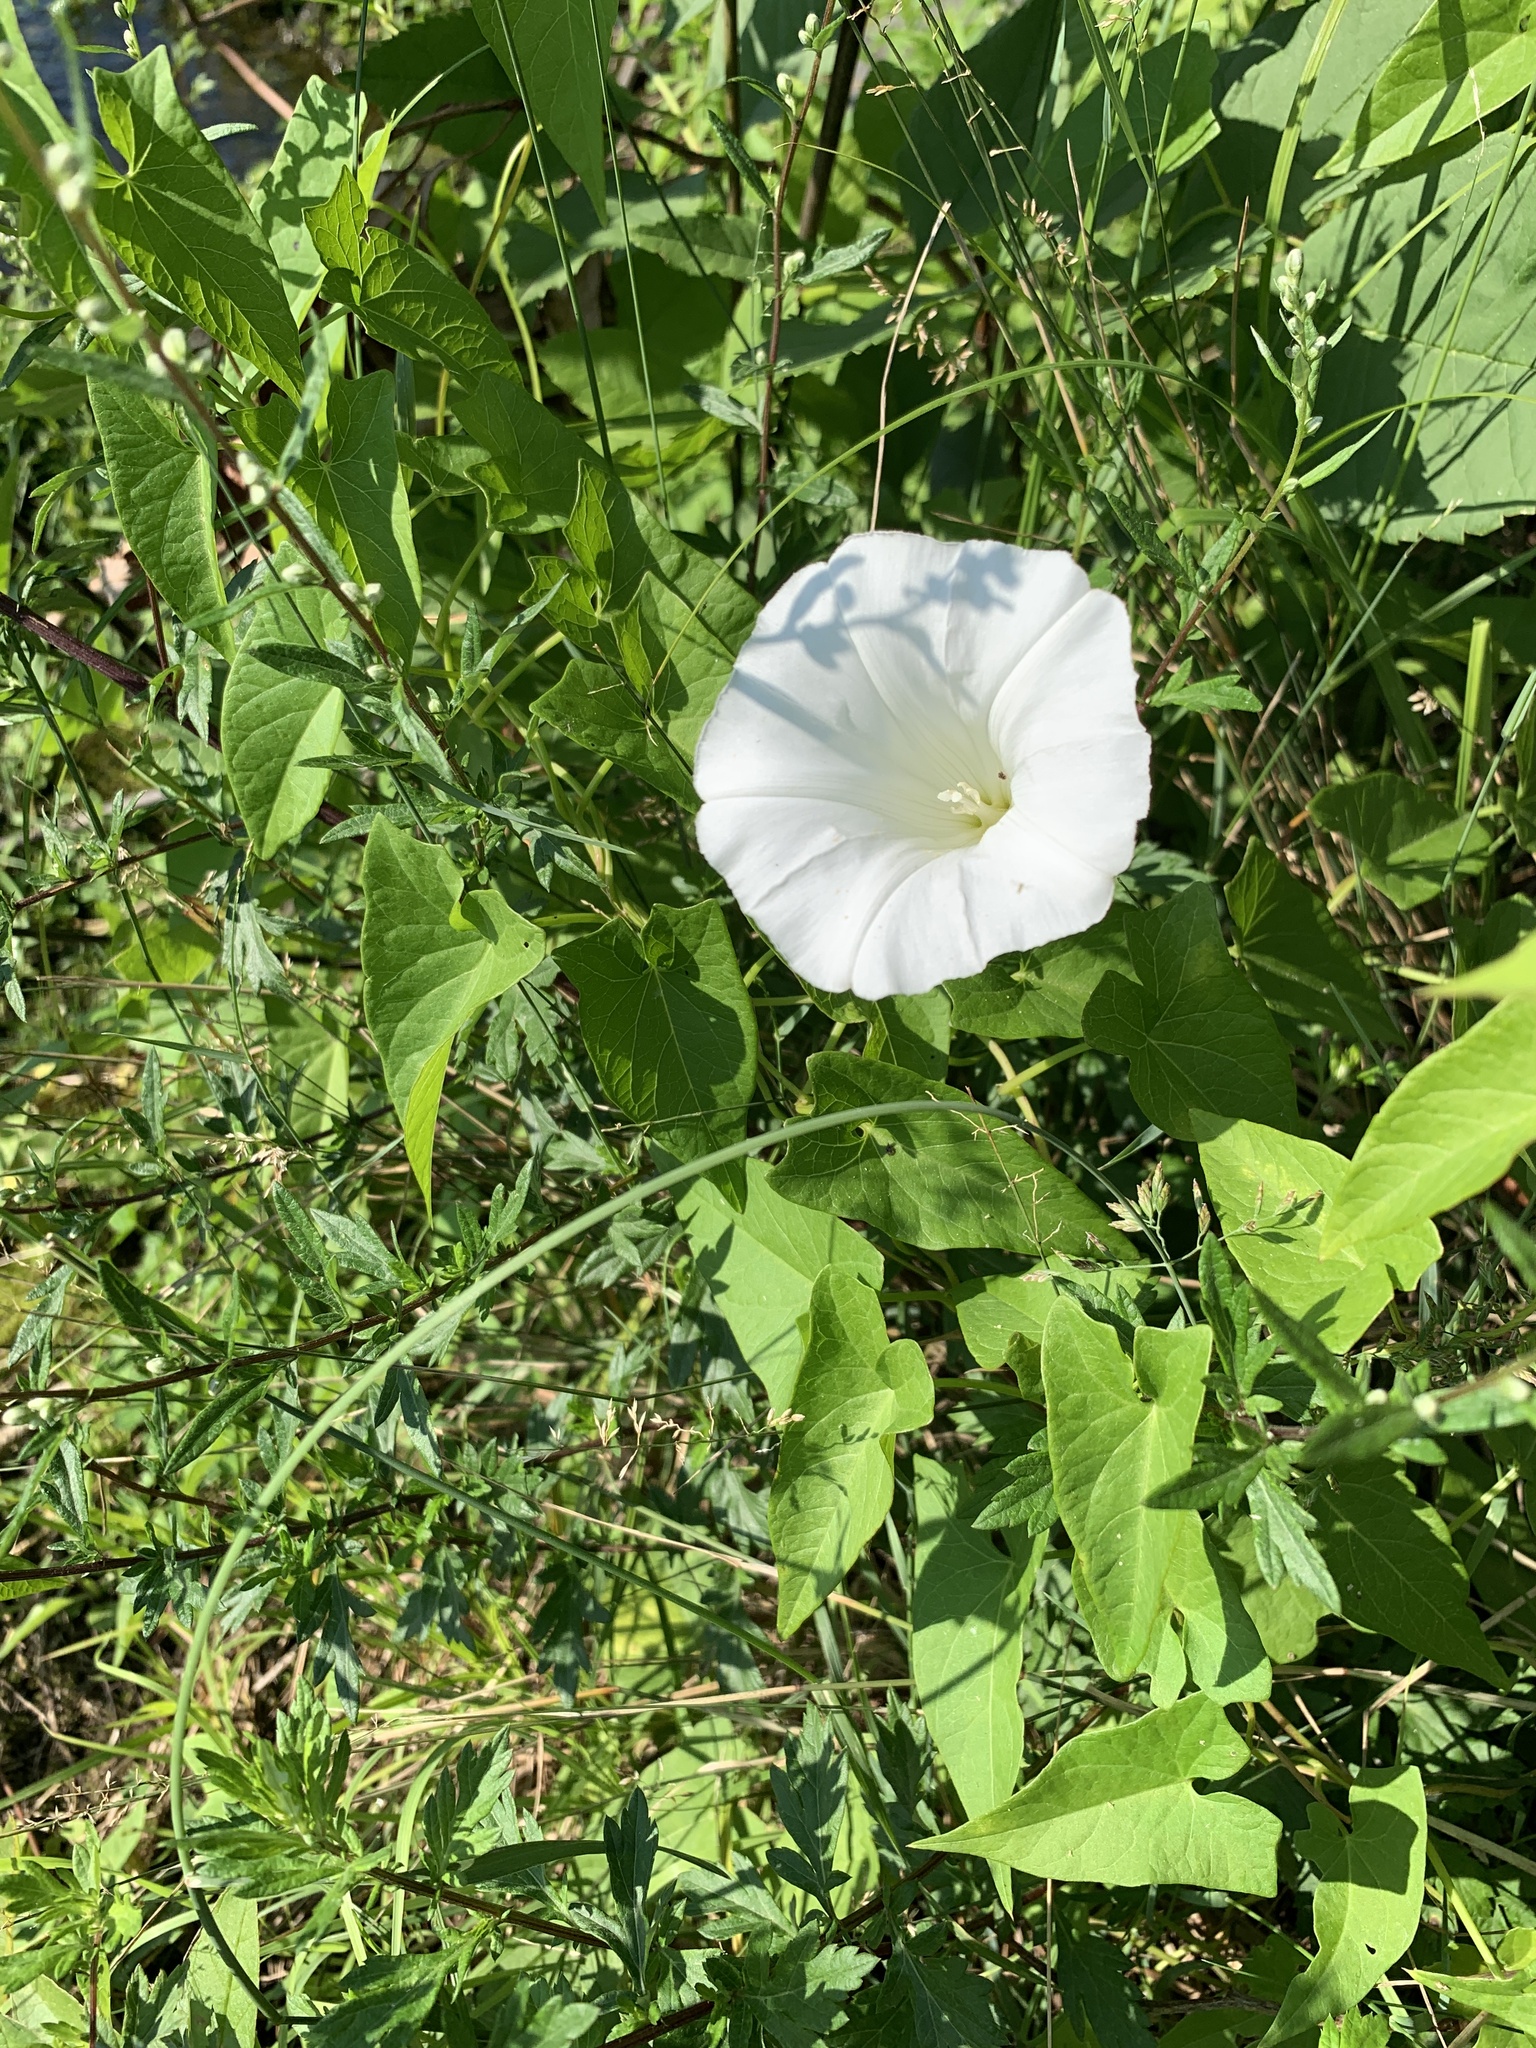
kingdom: Plantae
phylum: Tracheophyta
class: Magnoliopsida
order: Solanales
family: Convolvulaceae
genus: Calystegia
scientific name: Calystegia sepium
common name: Hedge bindweed
